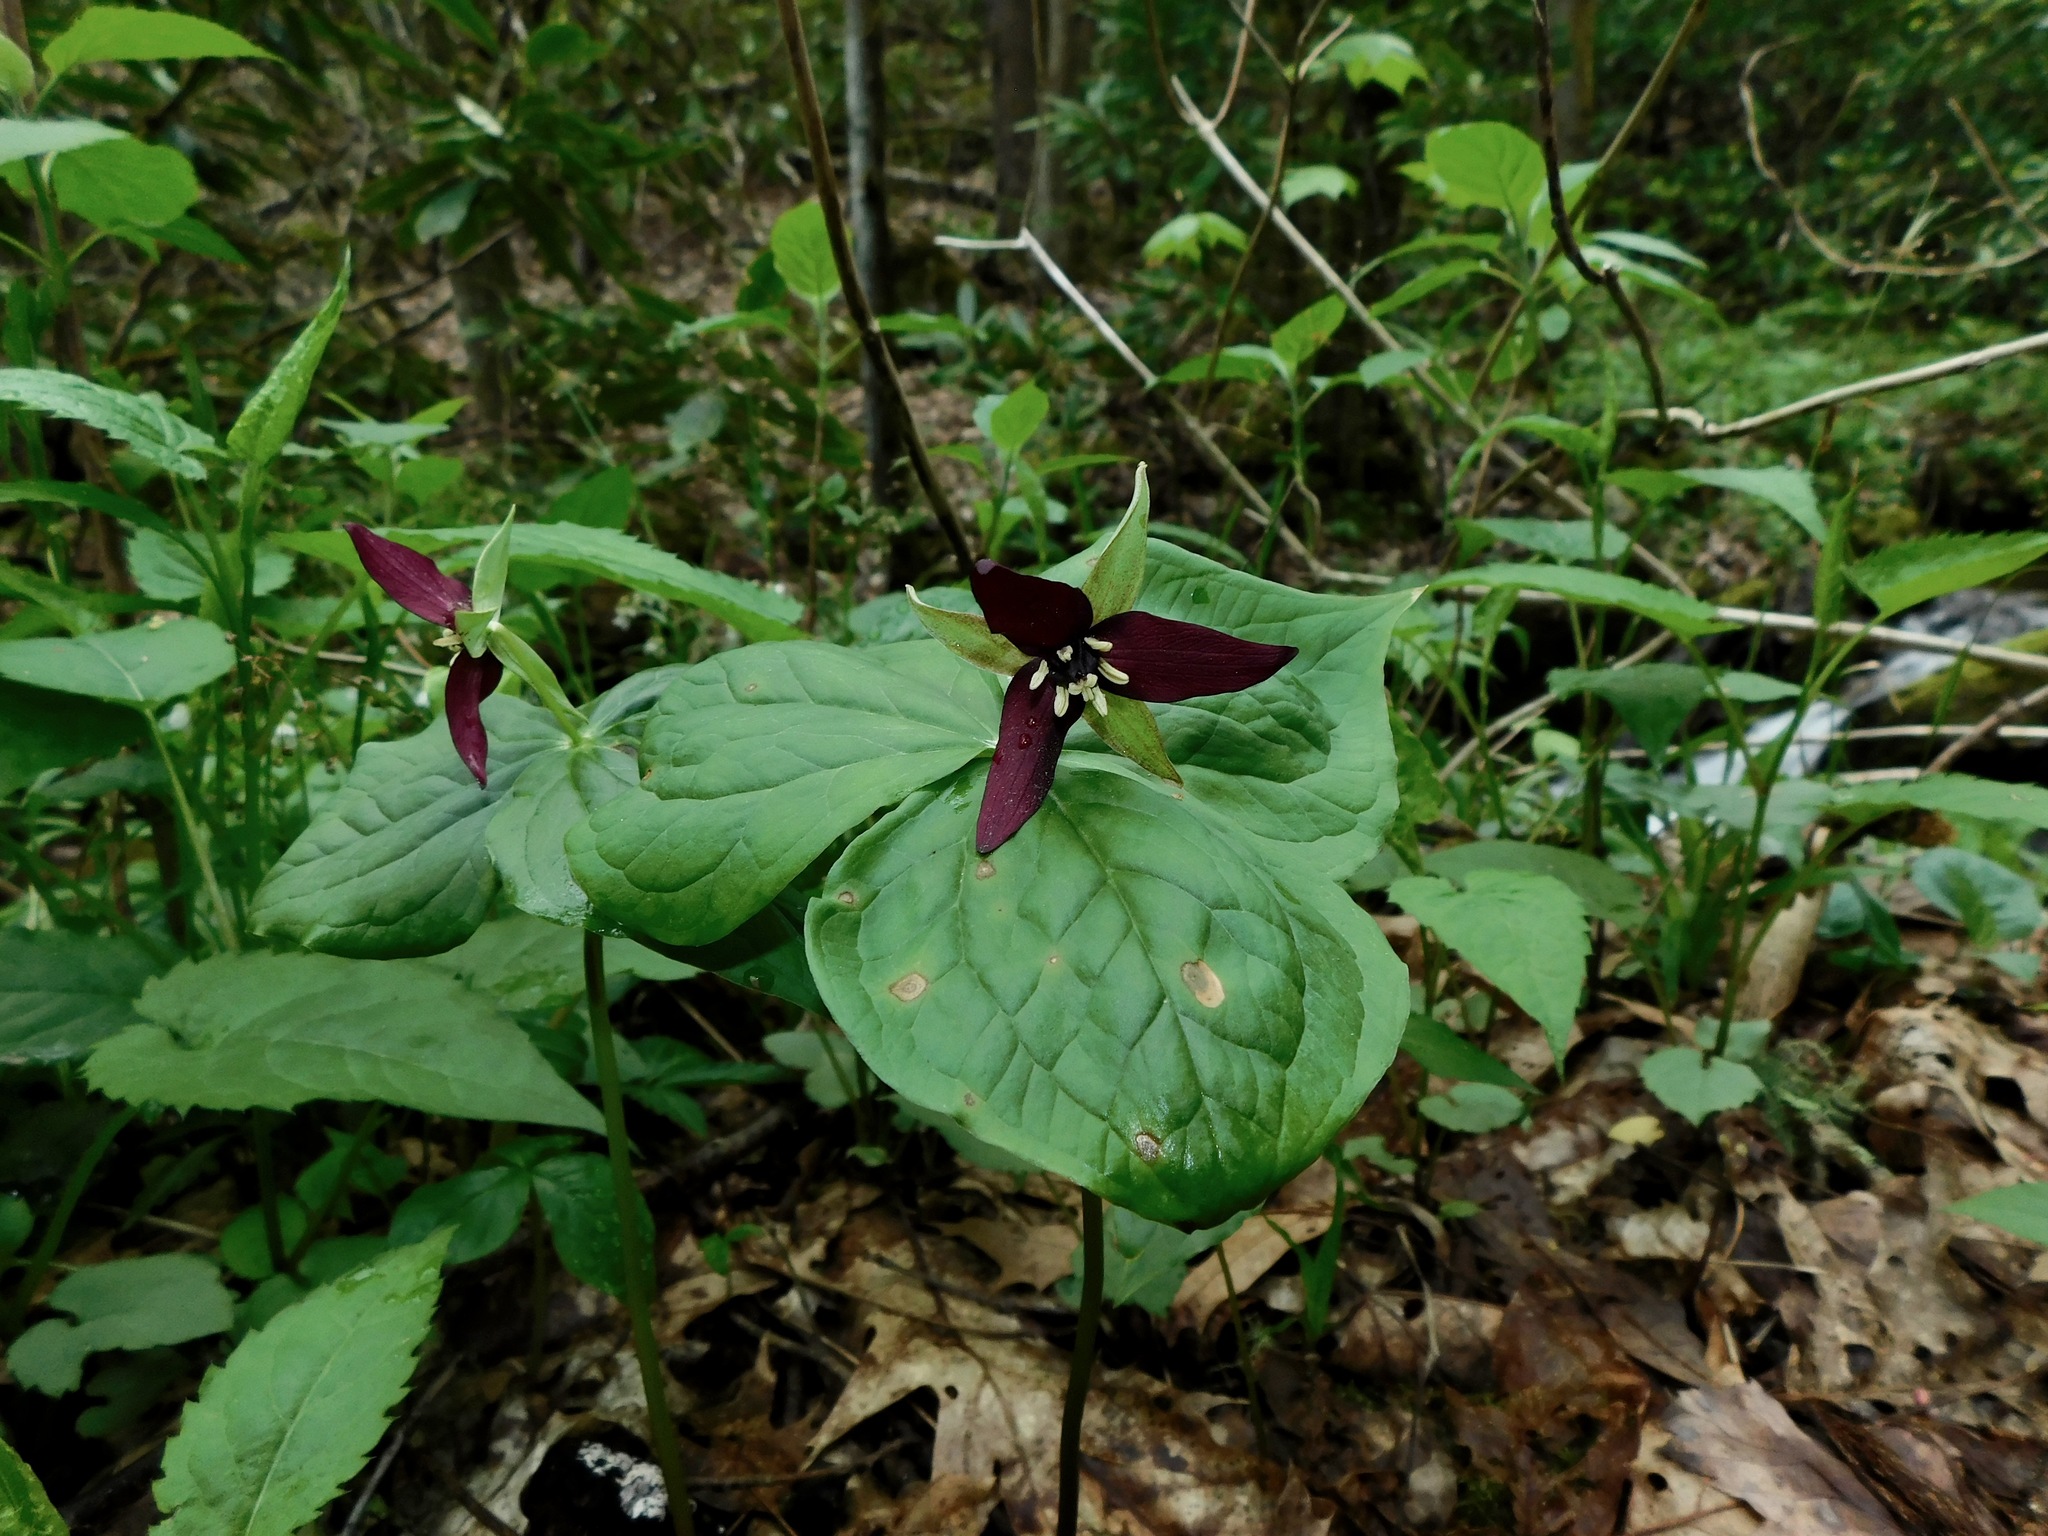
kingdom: Plantae
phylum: Tracheophyta
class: Liliopsida
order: Liliales
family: Melanthiaceae
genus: Trillium
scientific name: Trillium erectum
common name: Purple trillium
